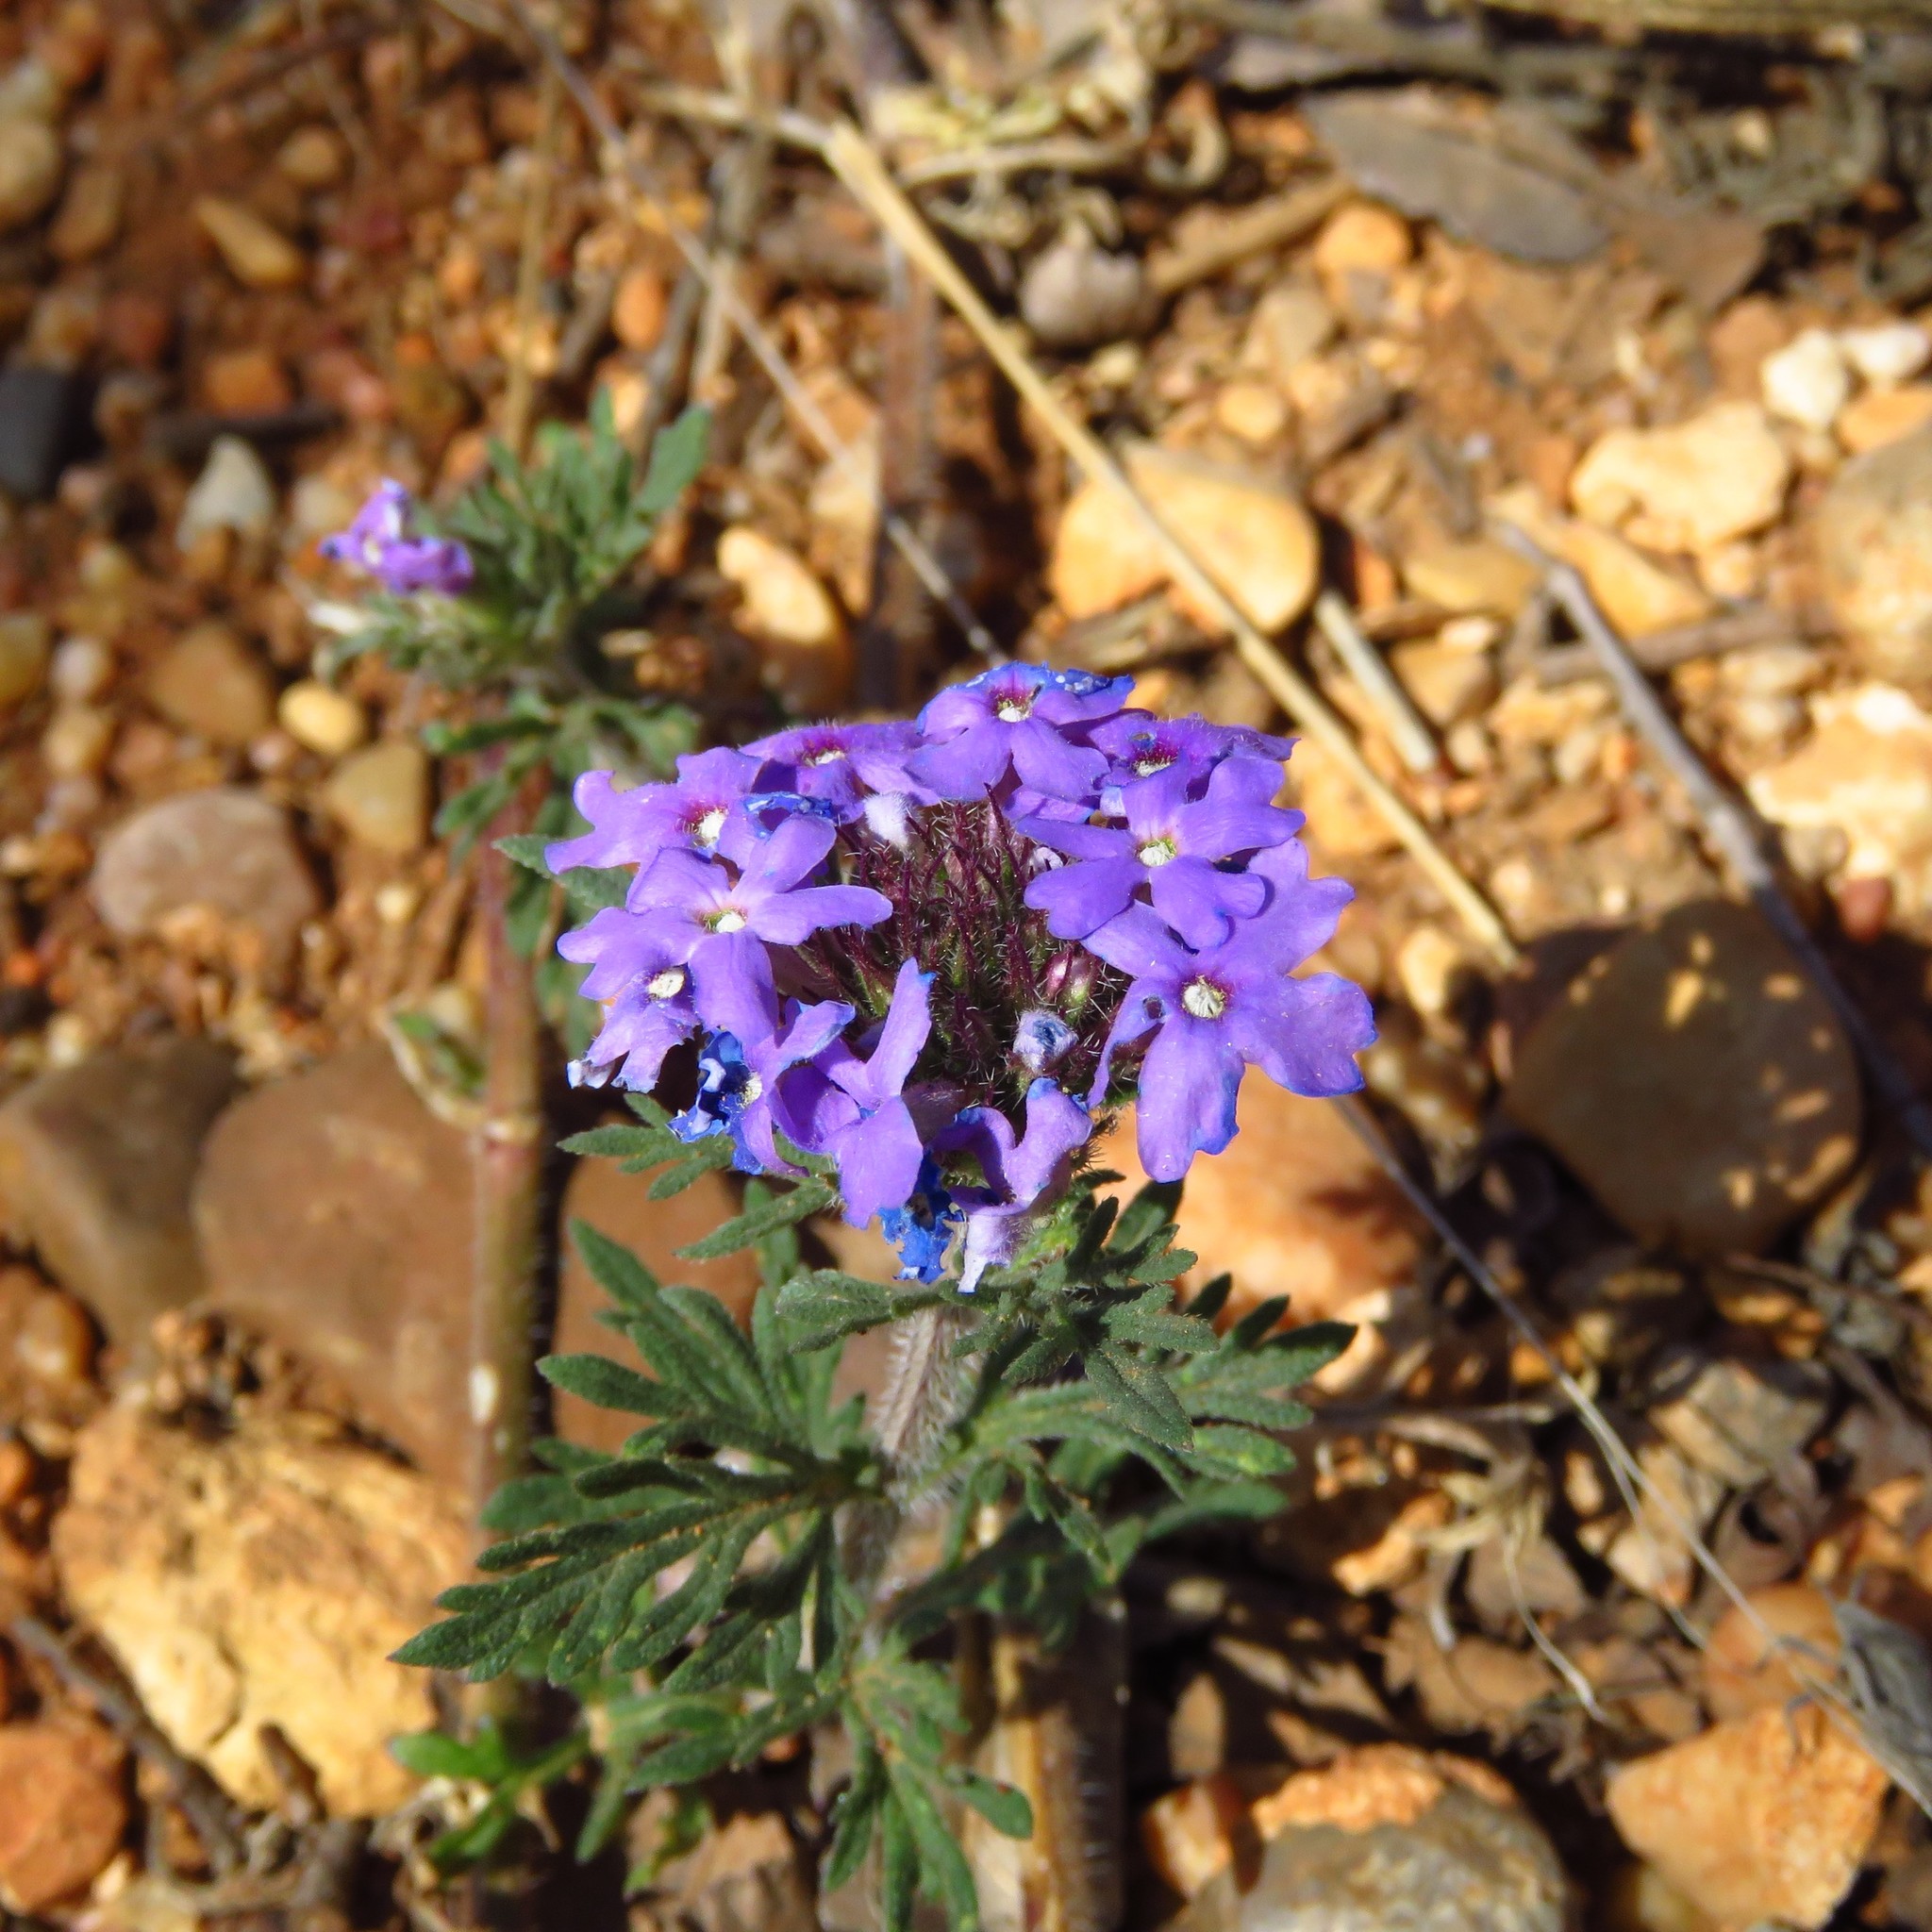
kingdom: Plantae
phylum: Tracheophyta
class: Magnoliopsida
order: Lamiales
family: Verbenaceae
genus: Verbena
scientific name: Verbena bipinnatifida
